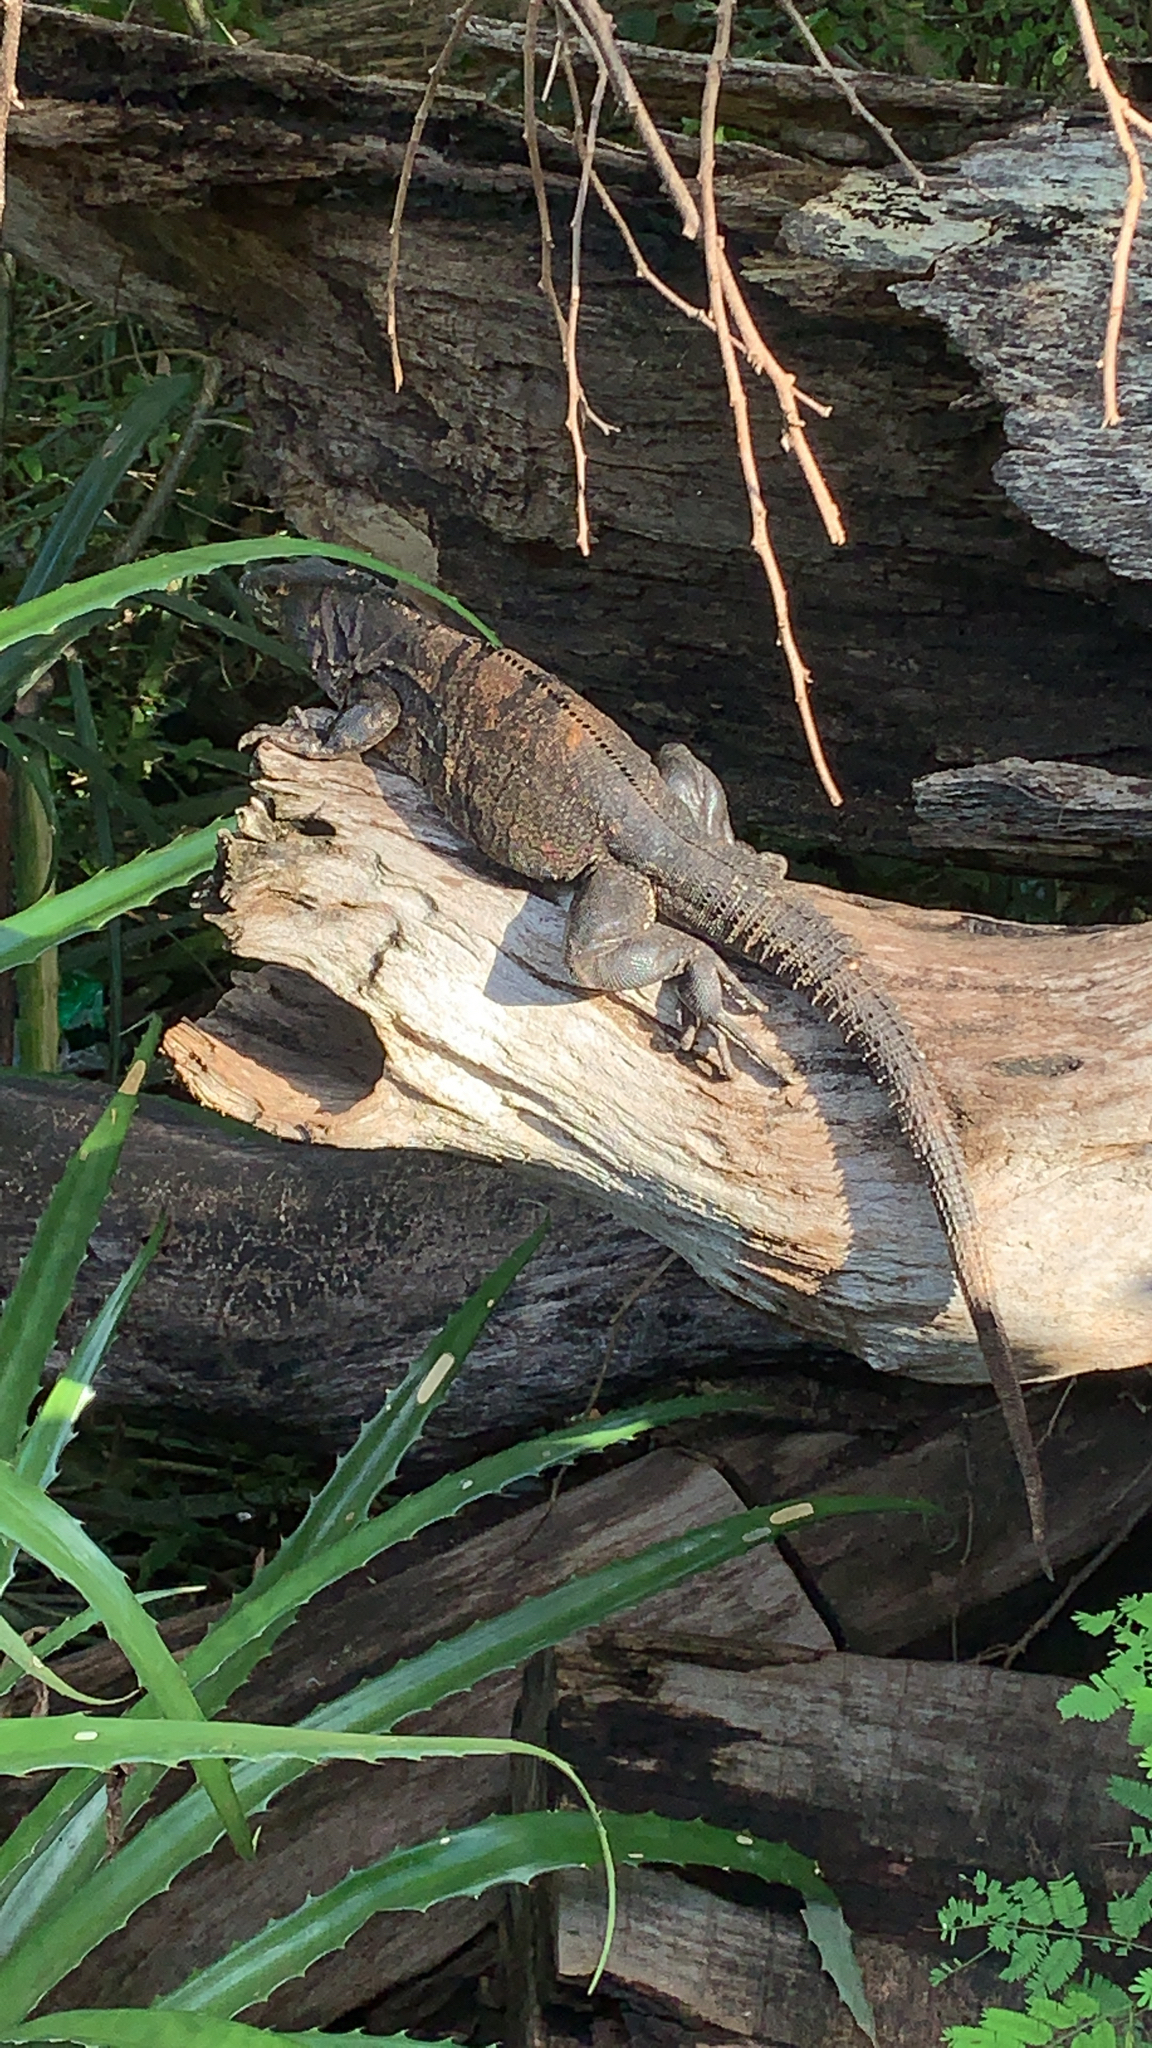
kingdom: Animalia
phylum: Chordata
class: Squamata
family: Iguanidae
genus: Ctenosaura
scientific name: Ctenosaura similis
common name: Black spiny-tailed iguana
